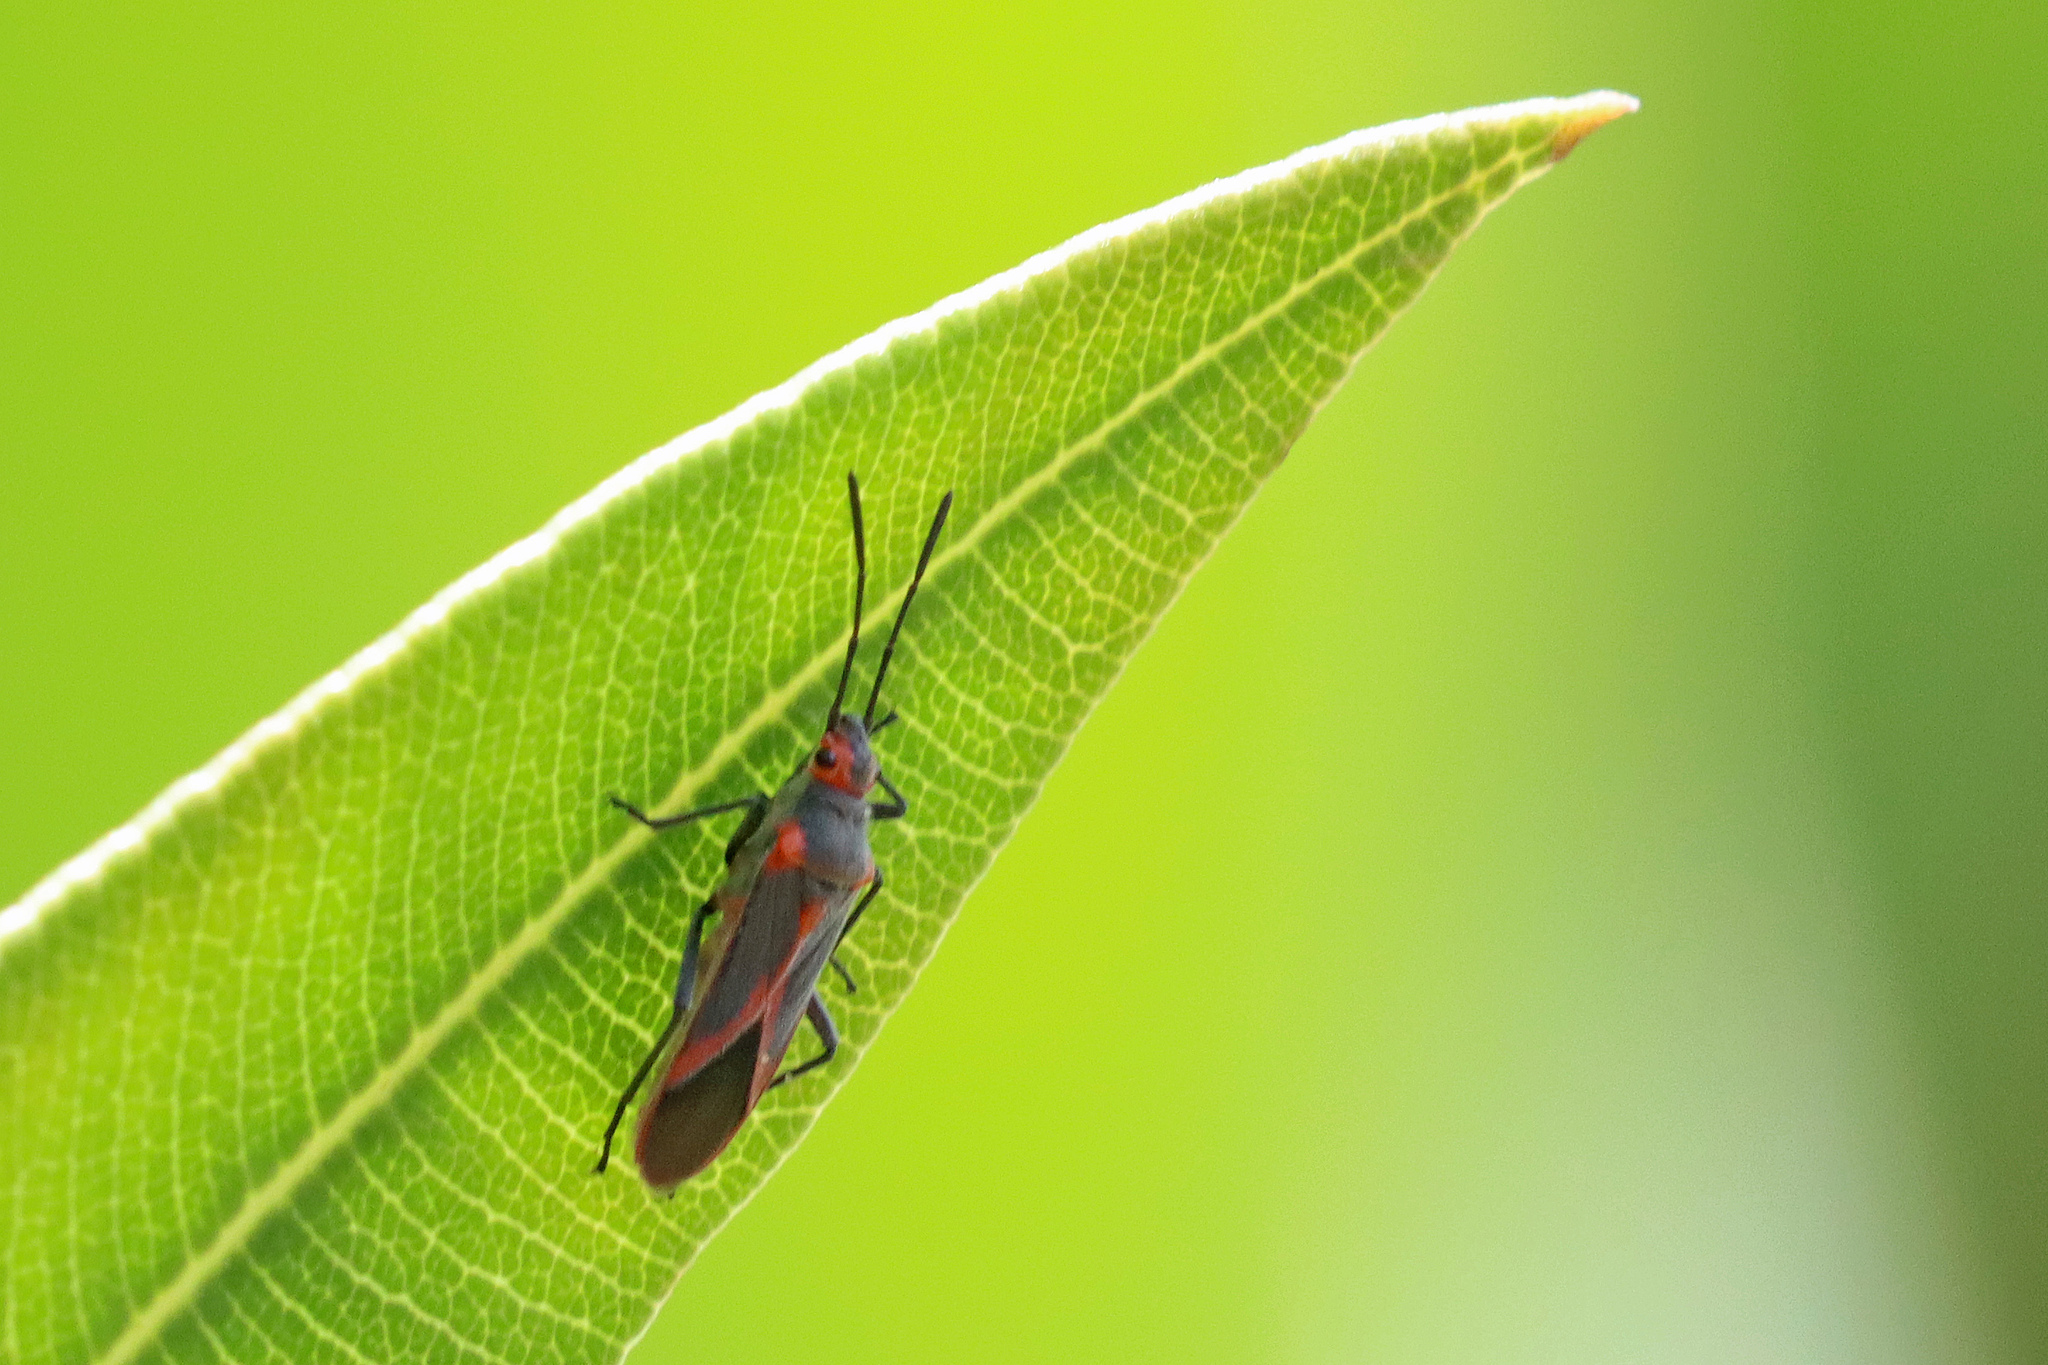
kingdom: Animalia
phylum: Arthropoda
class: Insecta
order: Hemiptera
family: Lygaeidae
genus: Caenocoris
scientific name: Caenocoris nerii
